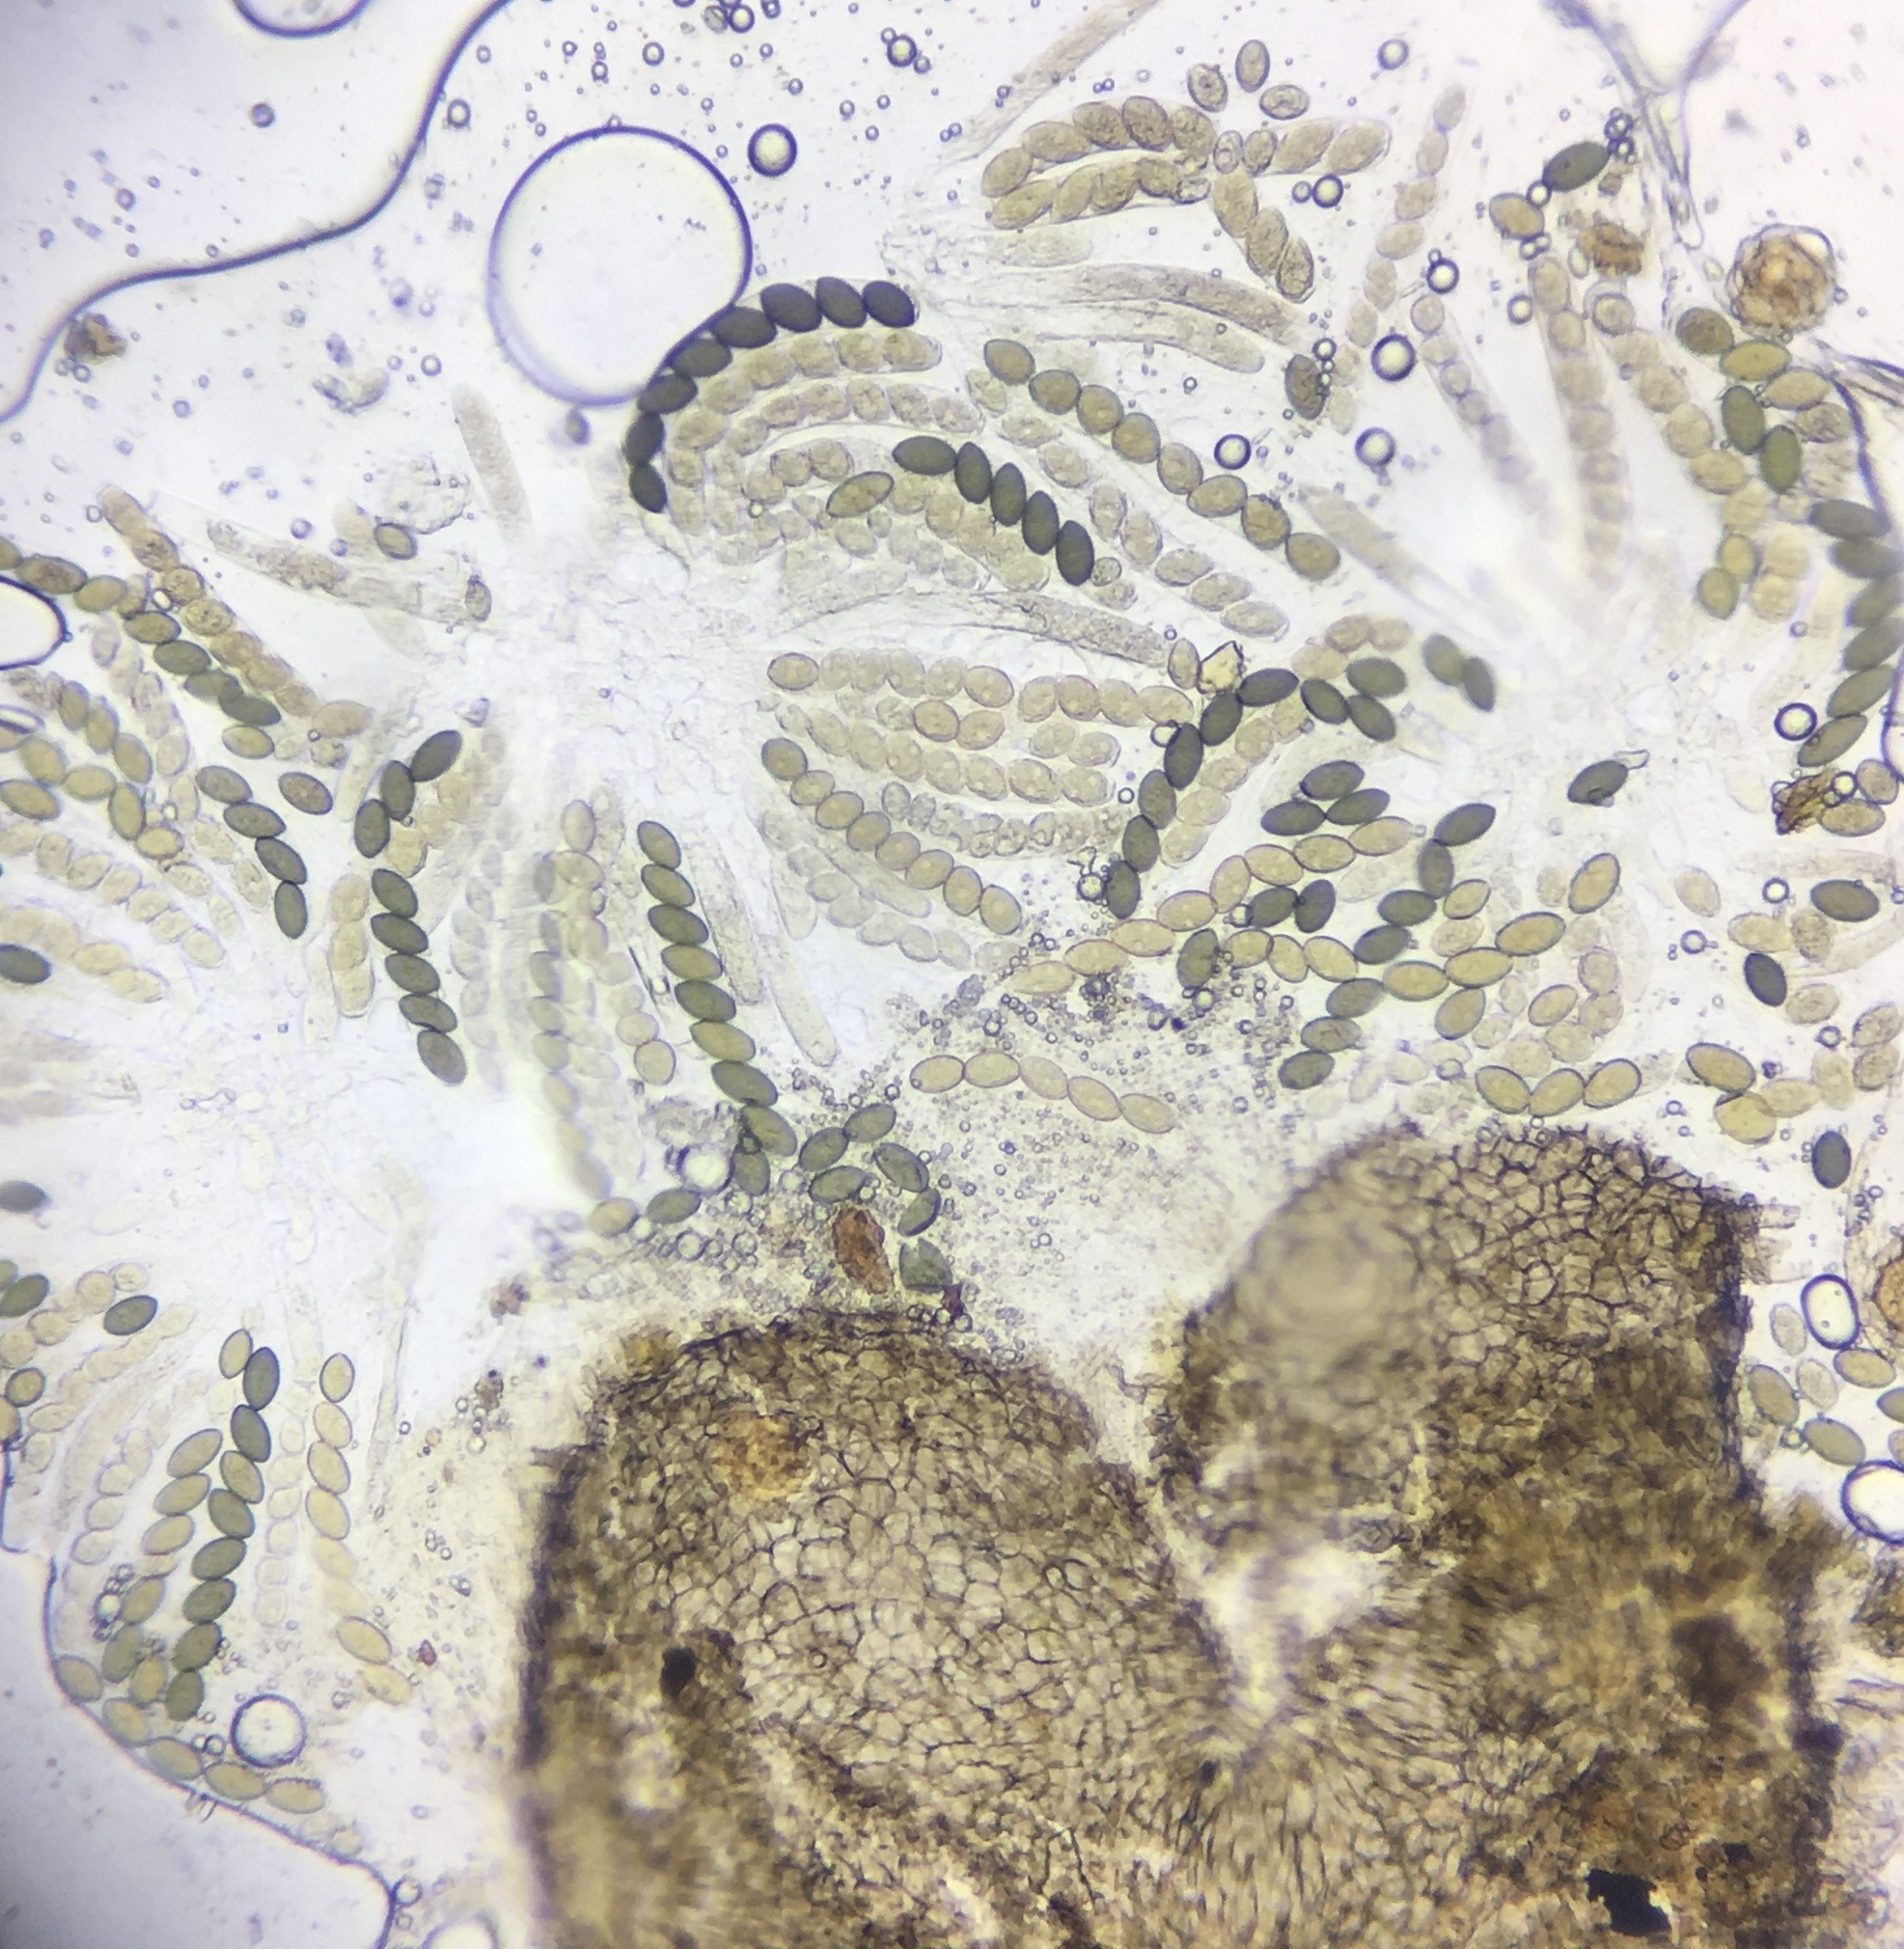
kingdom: Fungi
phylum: Ascomycota
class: Sordariomycetes
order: Sordariales
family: Sordariaceae
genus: Sordaria
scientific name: Sordaria fimicola
